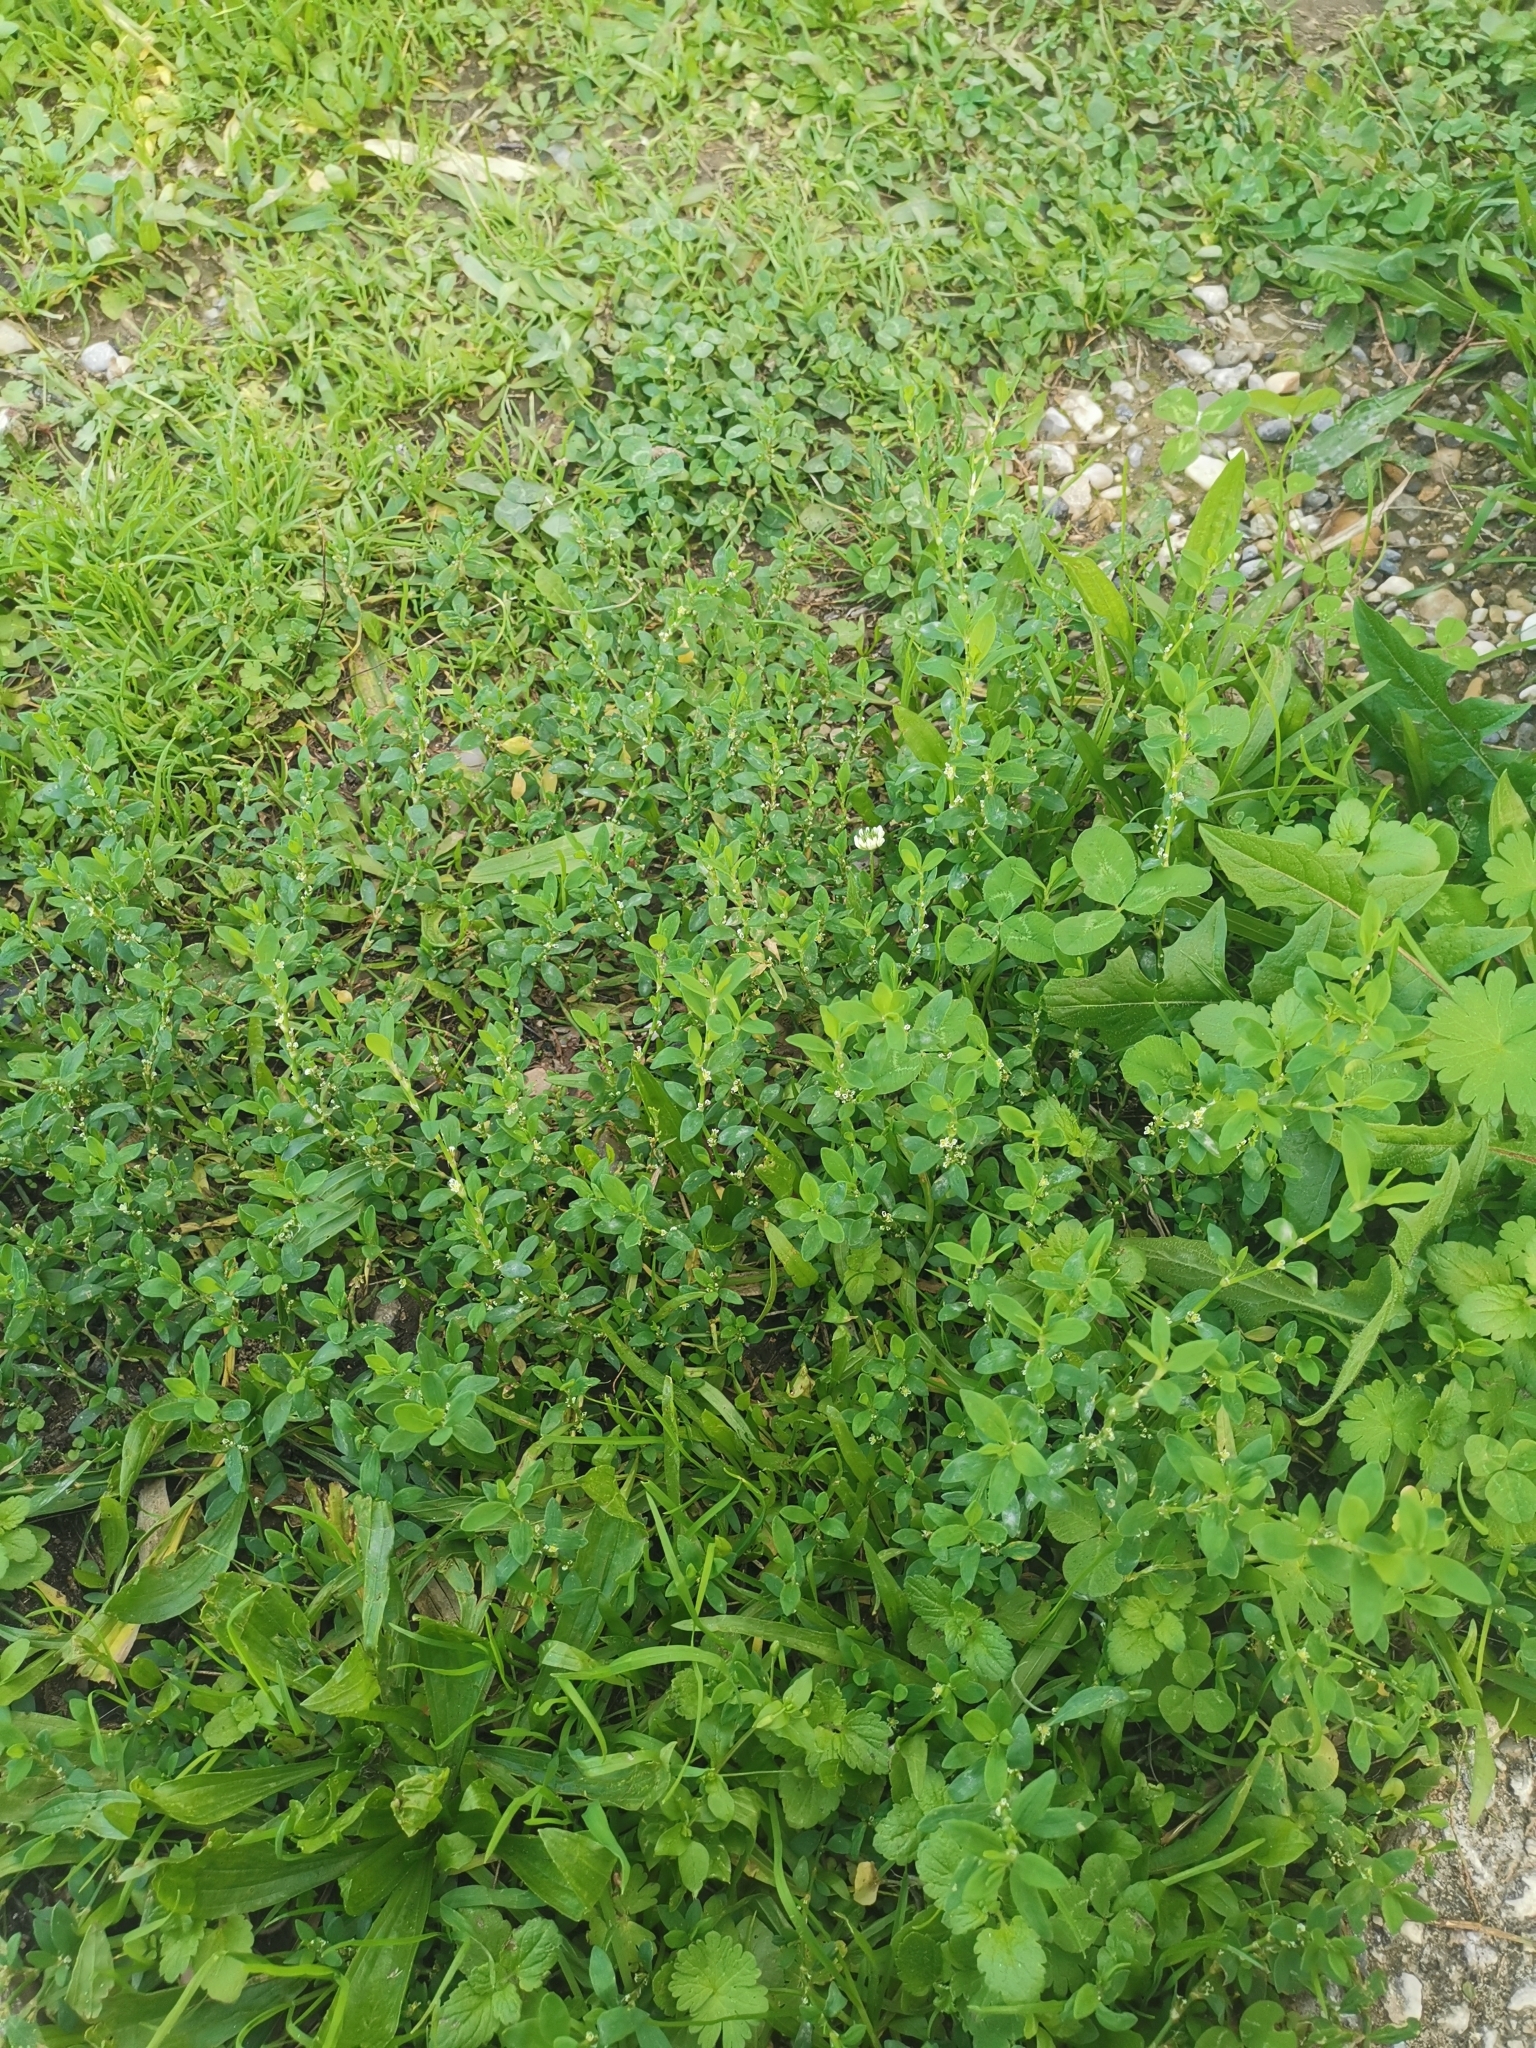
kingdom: Plantae
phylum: Tracheophyta
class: Magnoliopsida
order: Caryophyllales
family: Polygonaceae
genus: Polygonum
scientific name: Polygonum aviculare
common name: Prostrate knotweed
